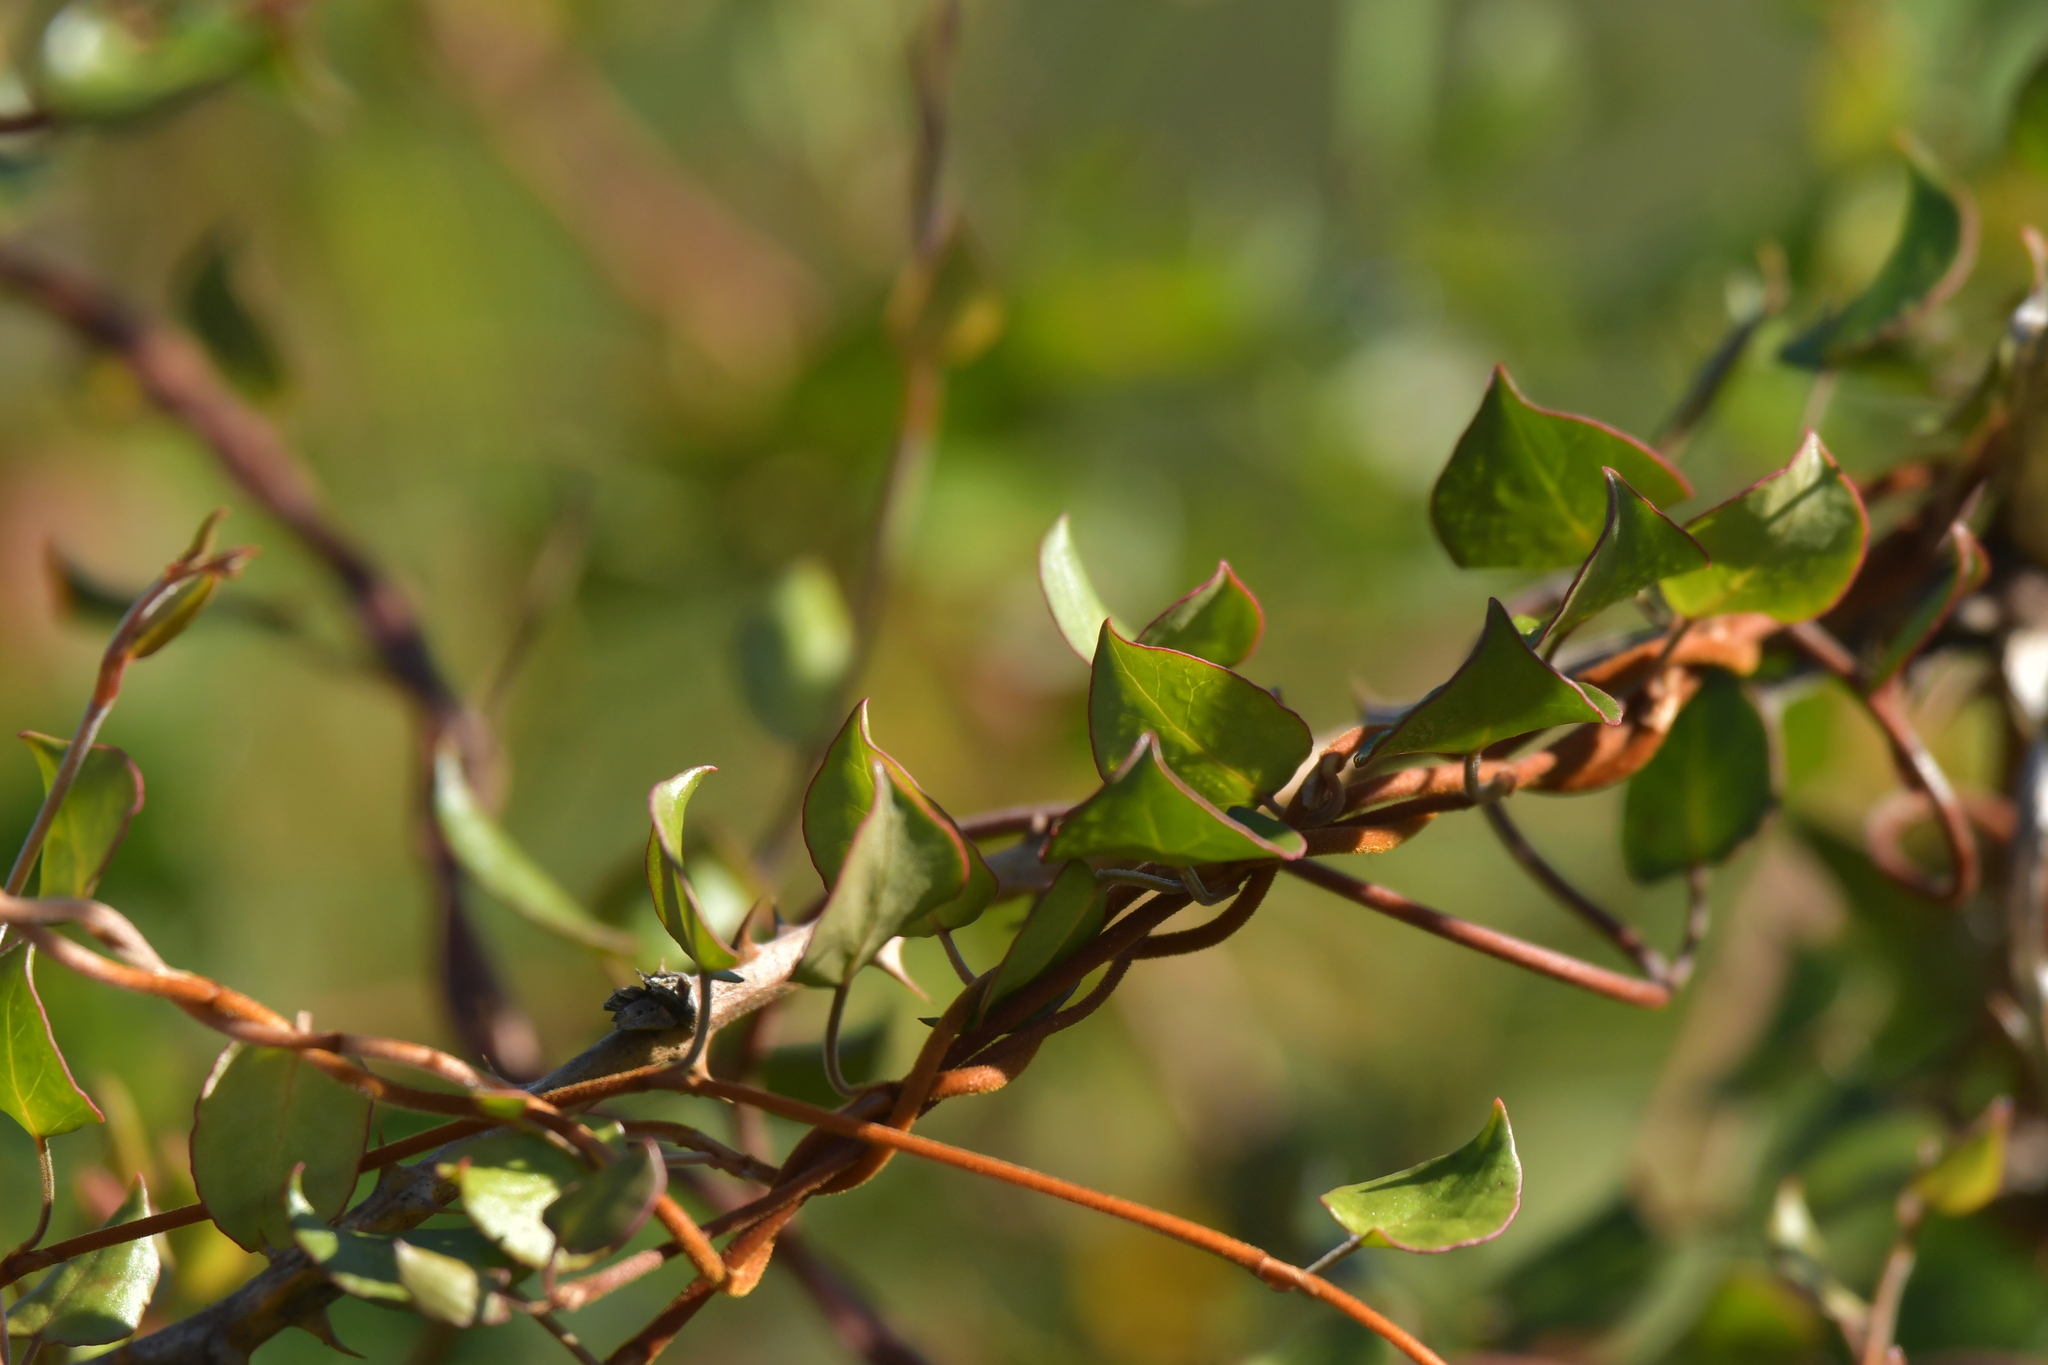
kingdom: Plantae
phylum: Tracheophyta
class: Magnoliopsida
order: Caryophyllales
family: Polygonaceae
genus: Muehlenbeckia
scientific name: Muehlenbeckia complexa
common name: Wireplant
